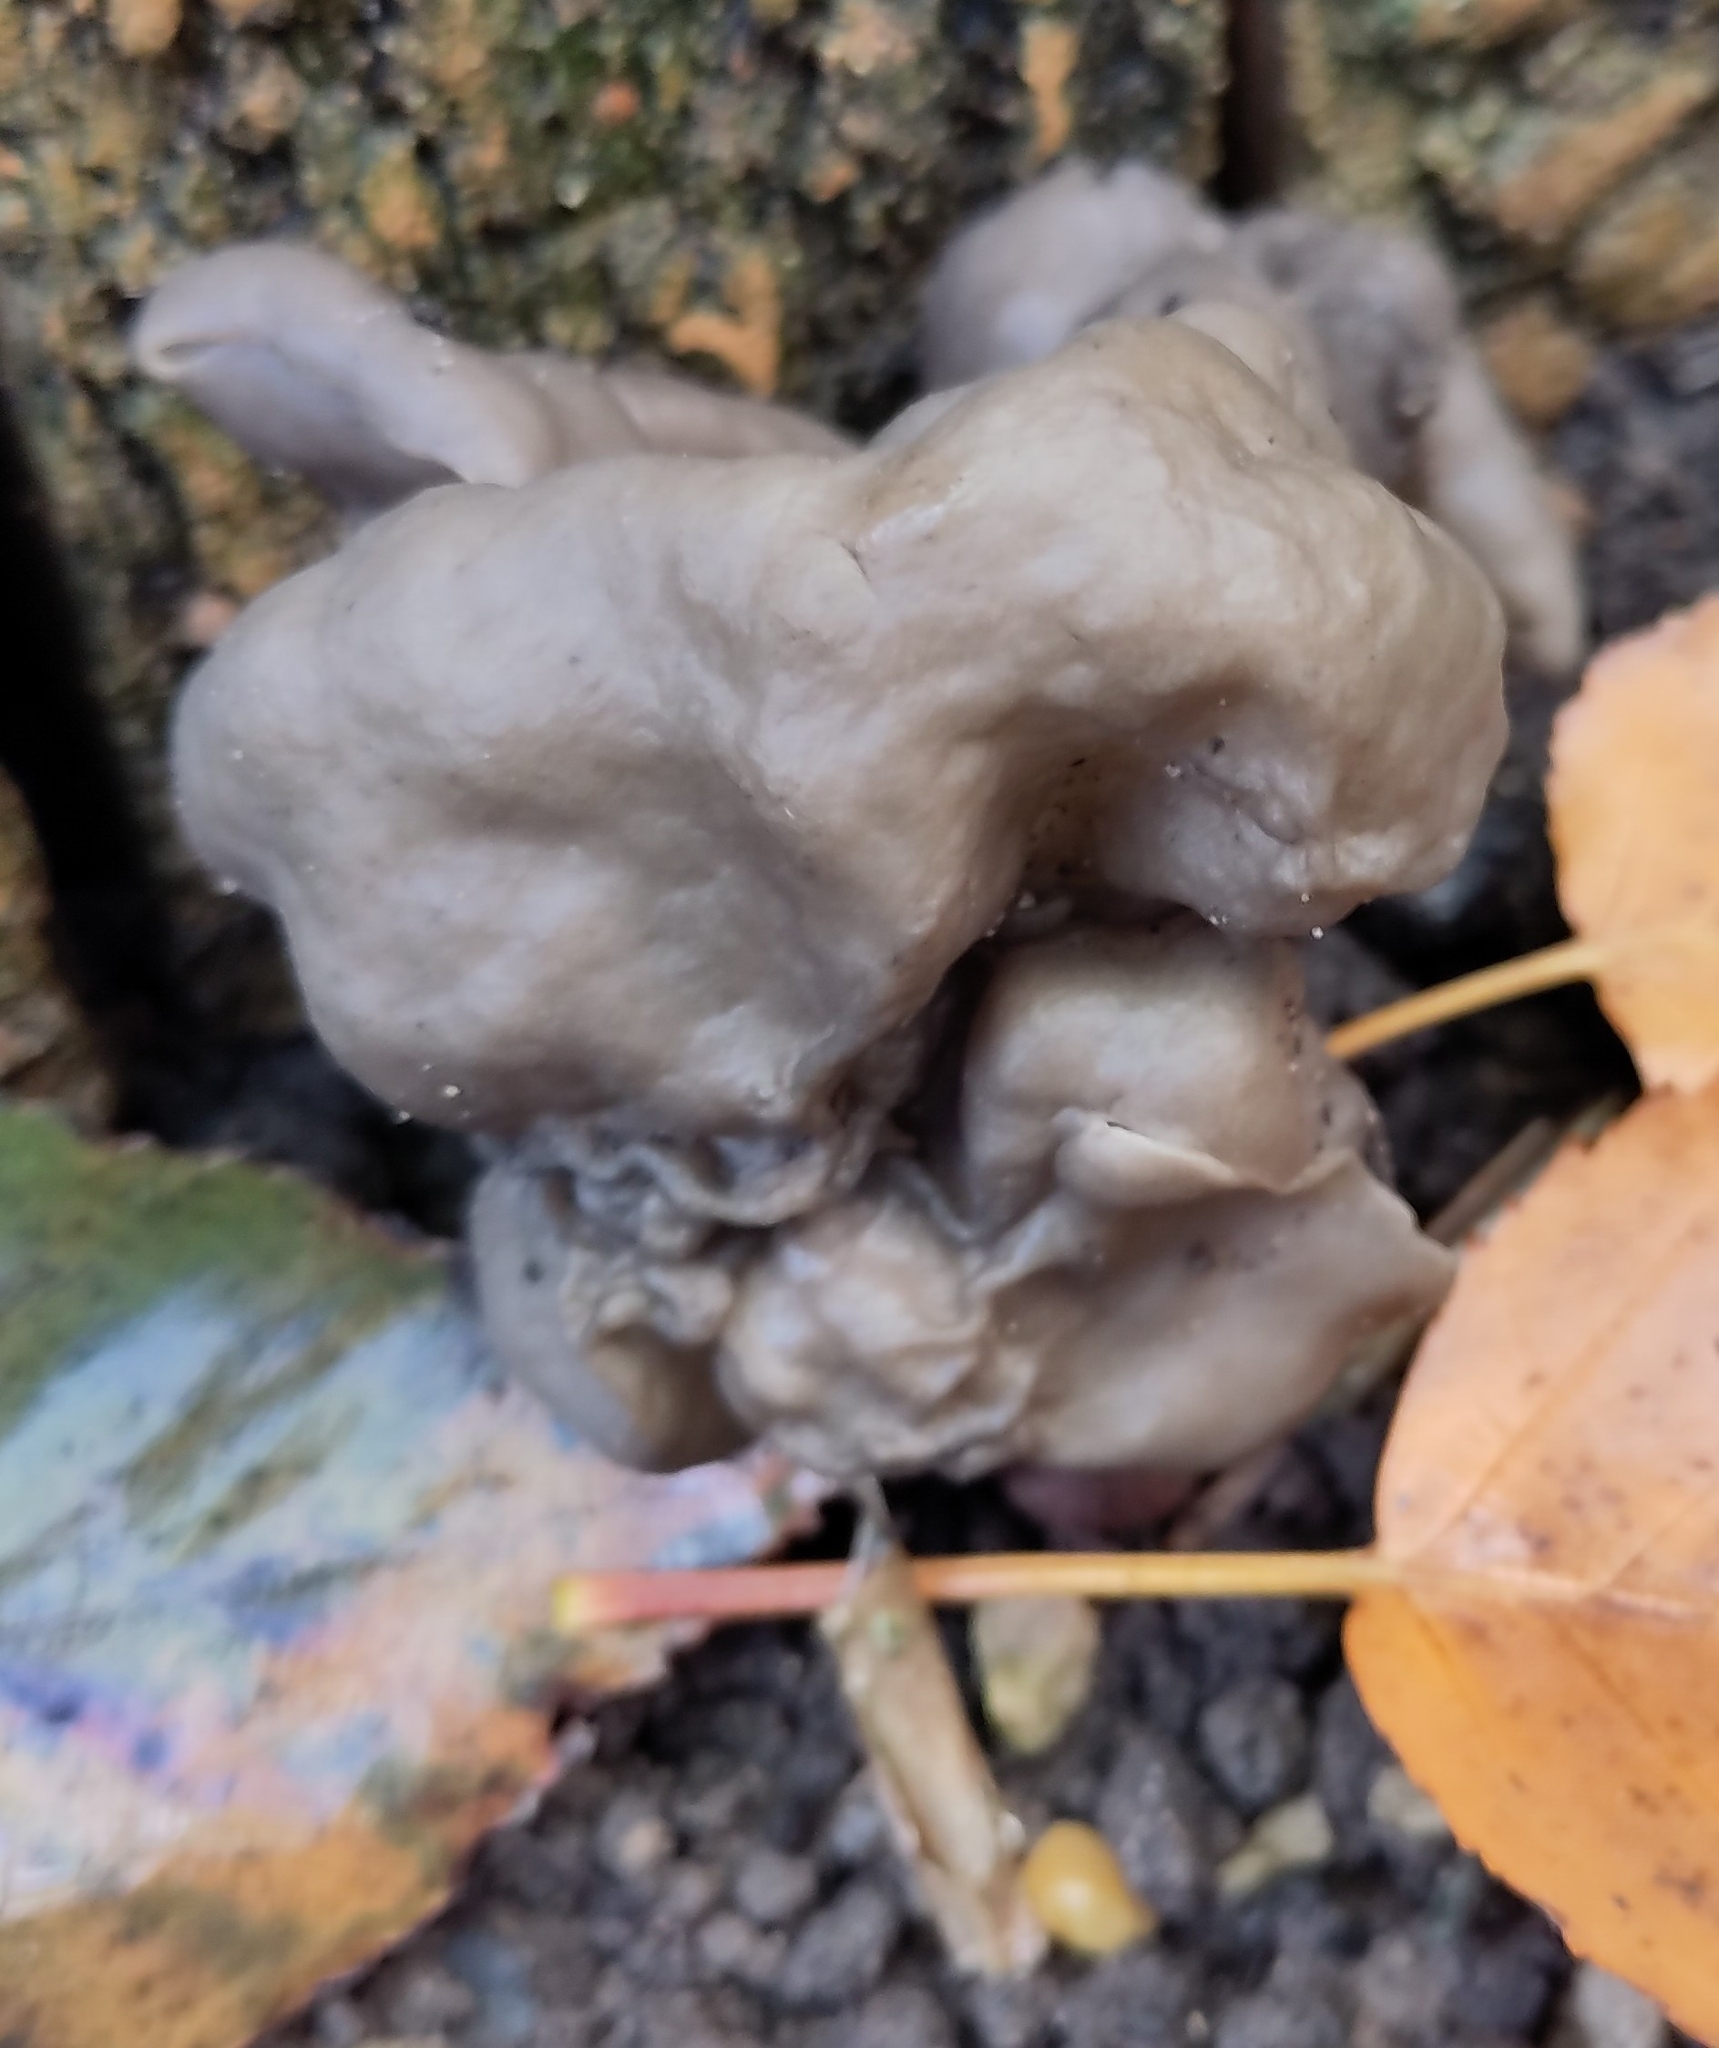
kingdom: Fungi
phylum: Ascomycota
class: Pezizomycetes
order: Pezizales
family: Helvellaceae
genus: Helvella
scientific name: Helvella lacunosa
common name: Elfin saddle
